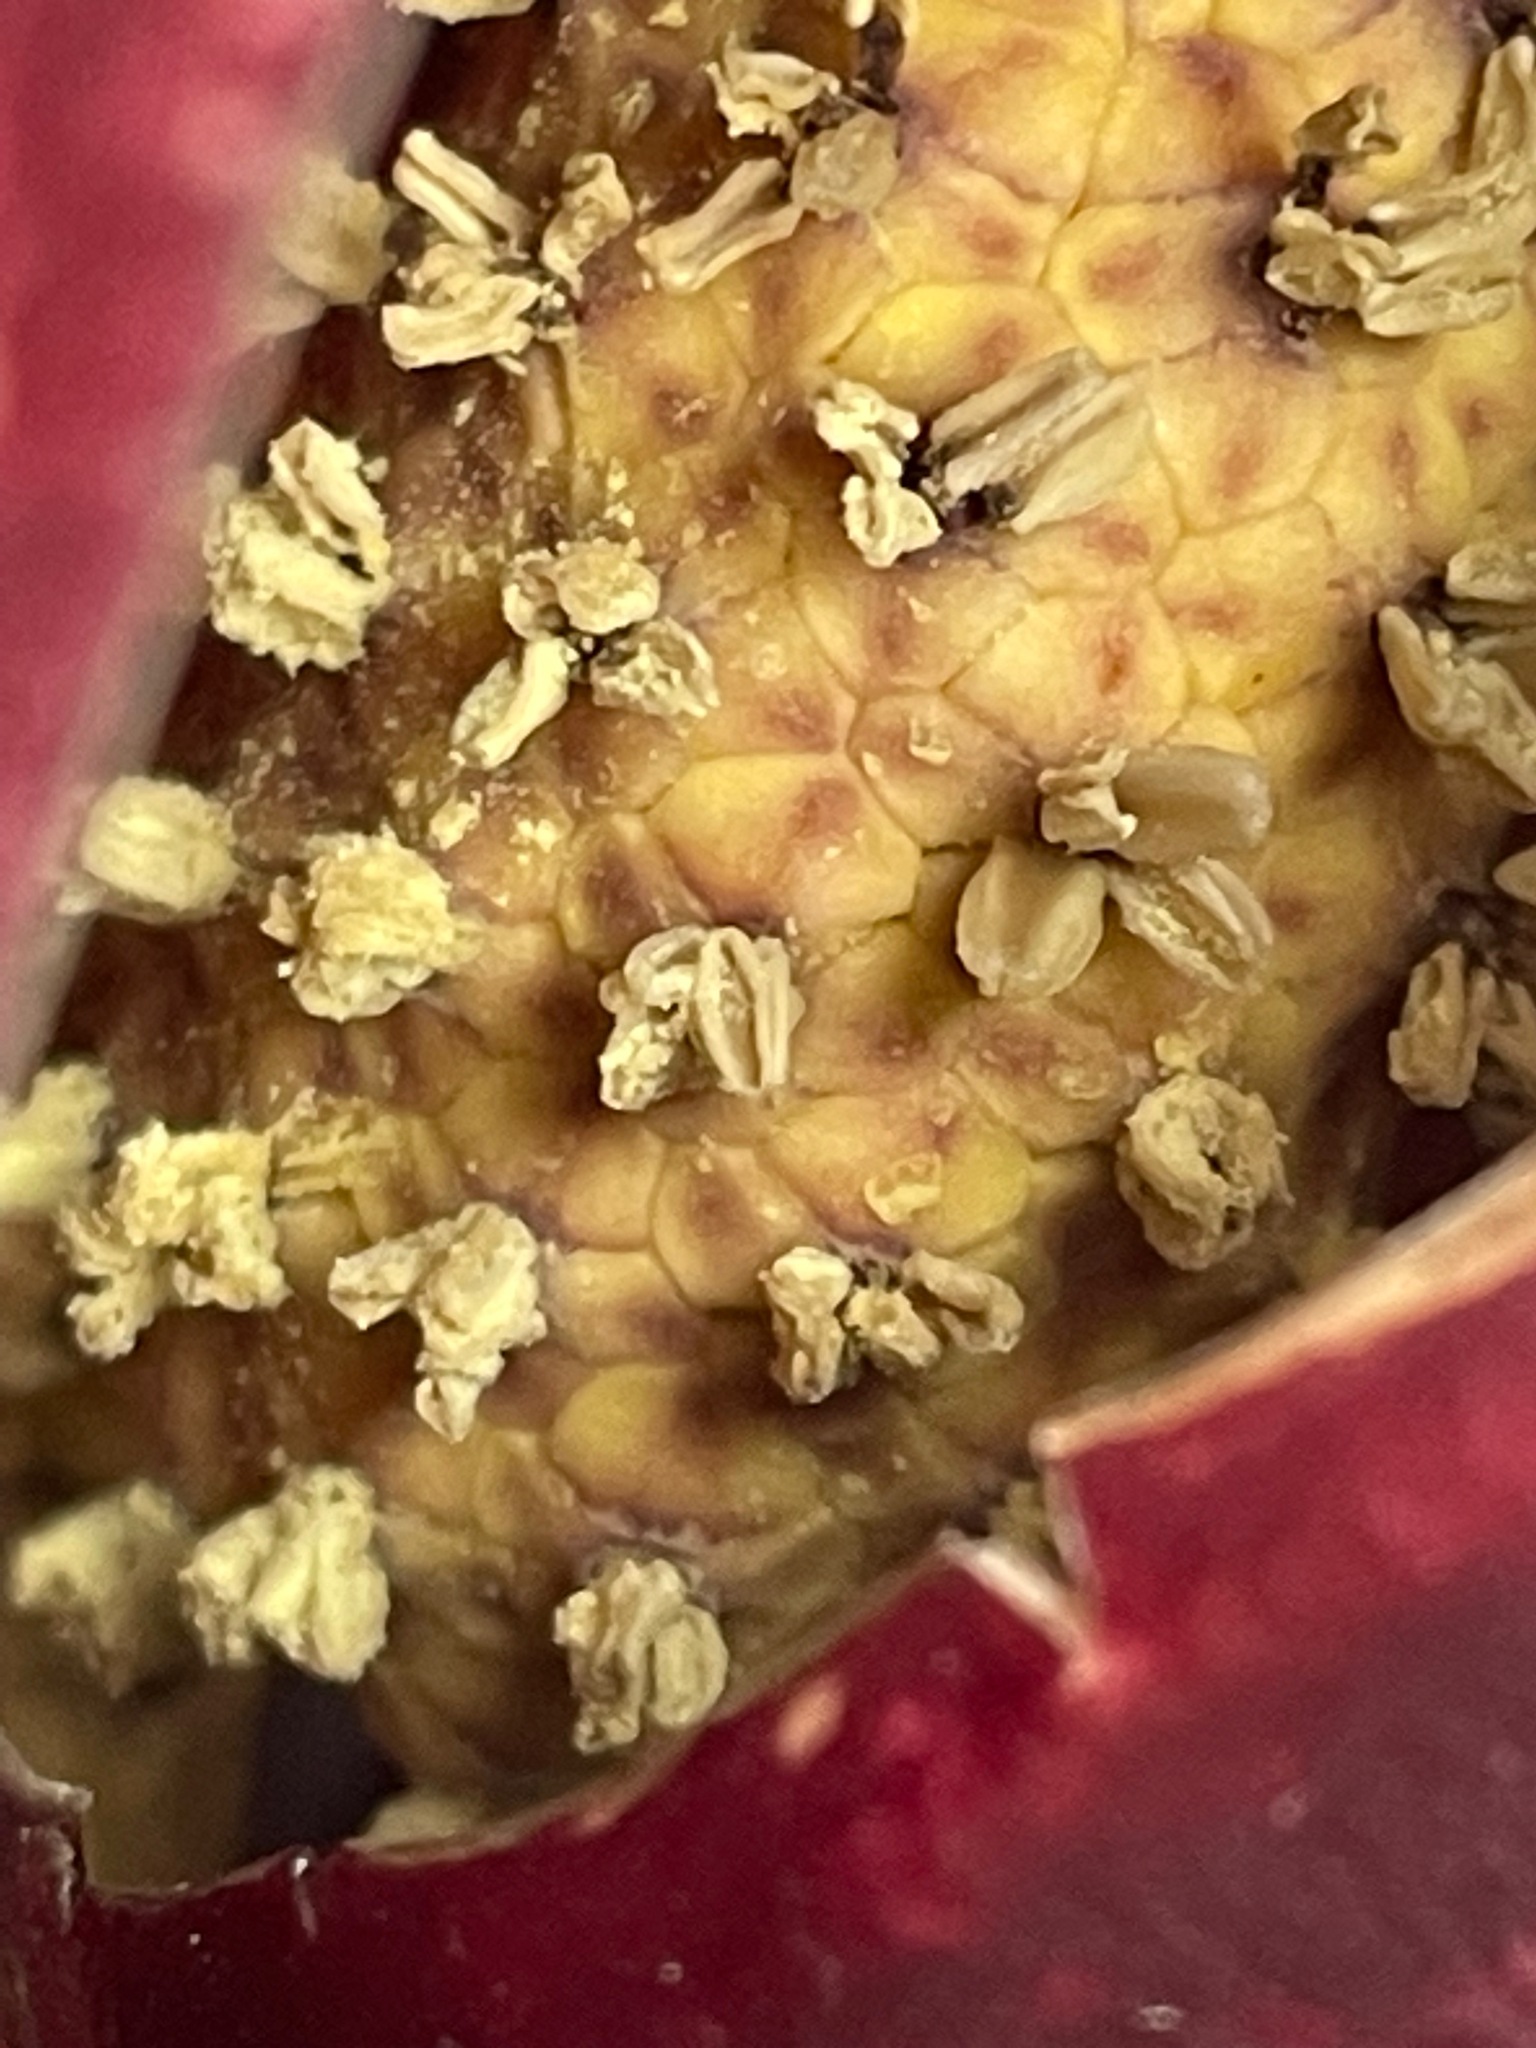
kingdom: Plantae
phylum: Tracheophyta
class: Liliopsida
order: Alismatales
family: Araceae
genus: Symplocarpus
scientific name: Symplocarpus foetidus
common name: Eastern skunk cabbage
